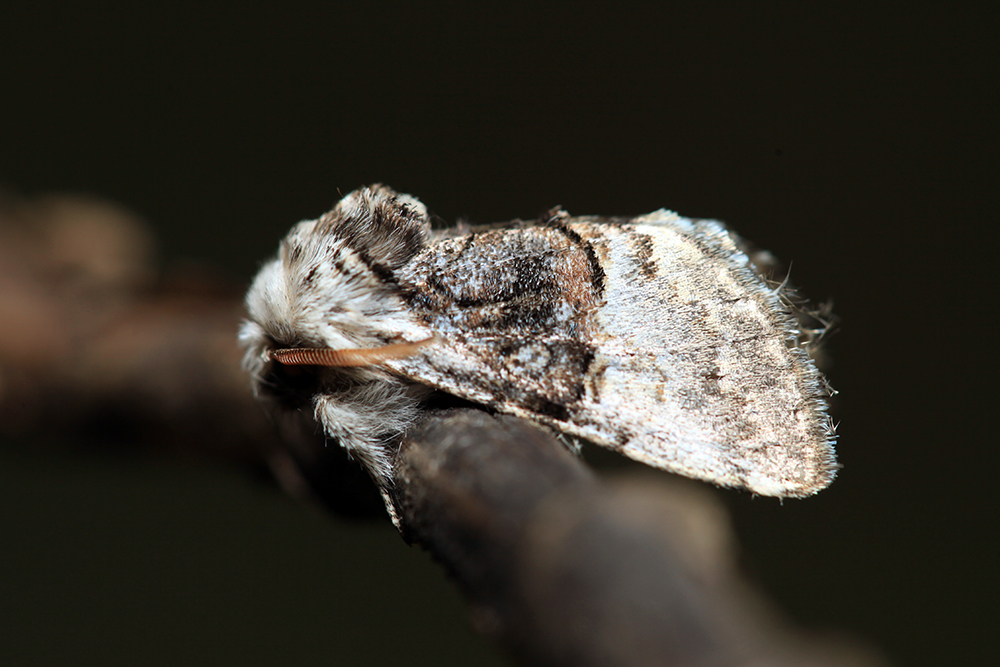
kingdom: Animalia
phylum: Arthropoda
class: Insecta
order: Lepidoptera
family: Noctuidae
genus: Colocasia
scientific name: Colocasia coryli
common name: Nut-tree tussock
